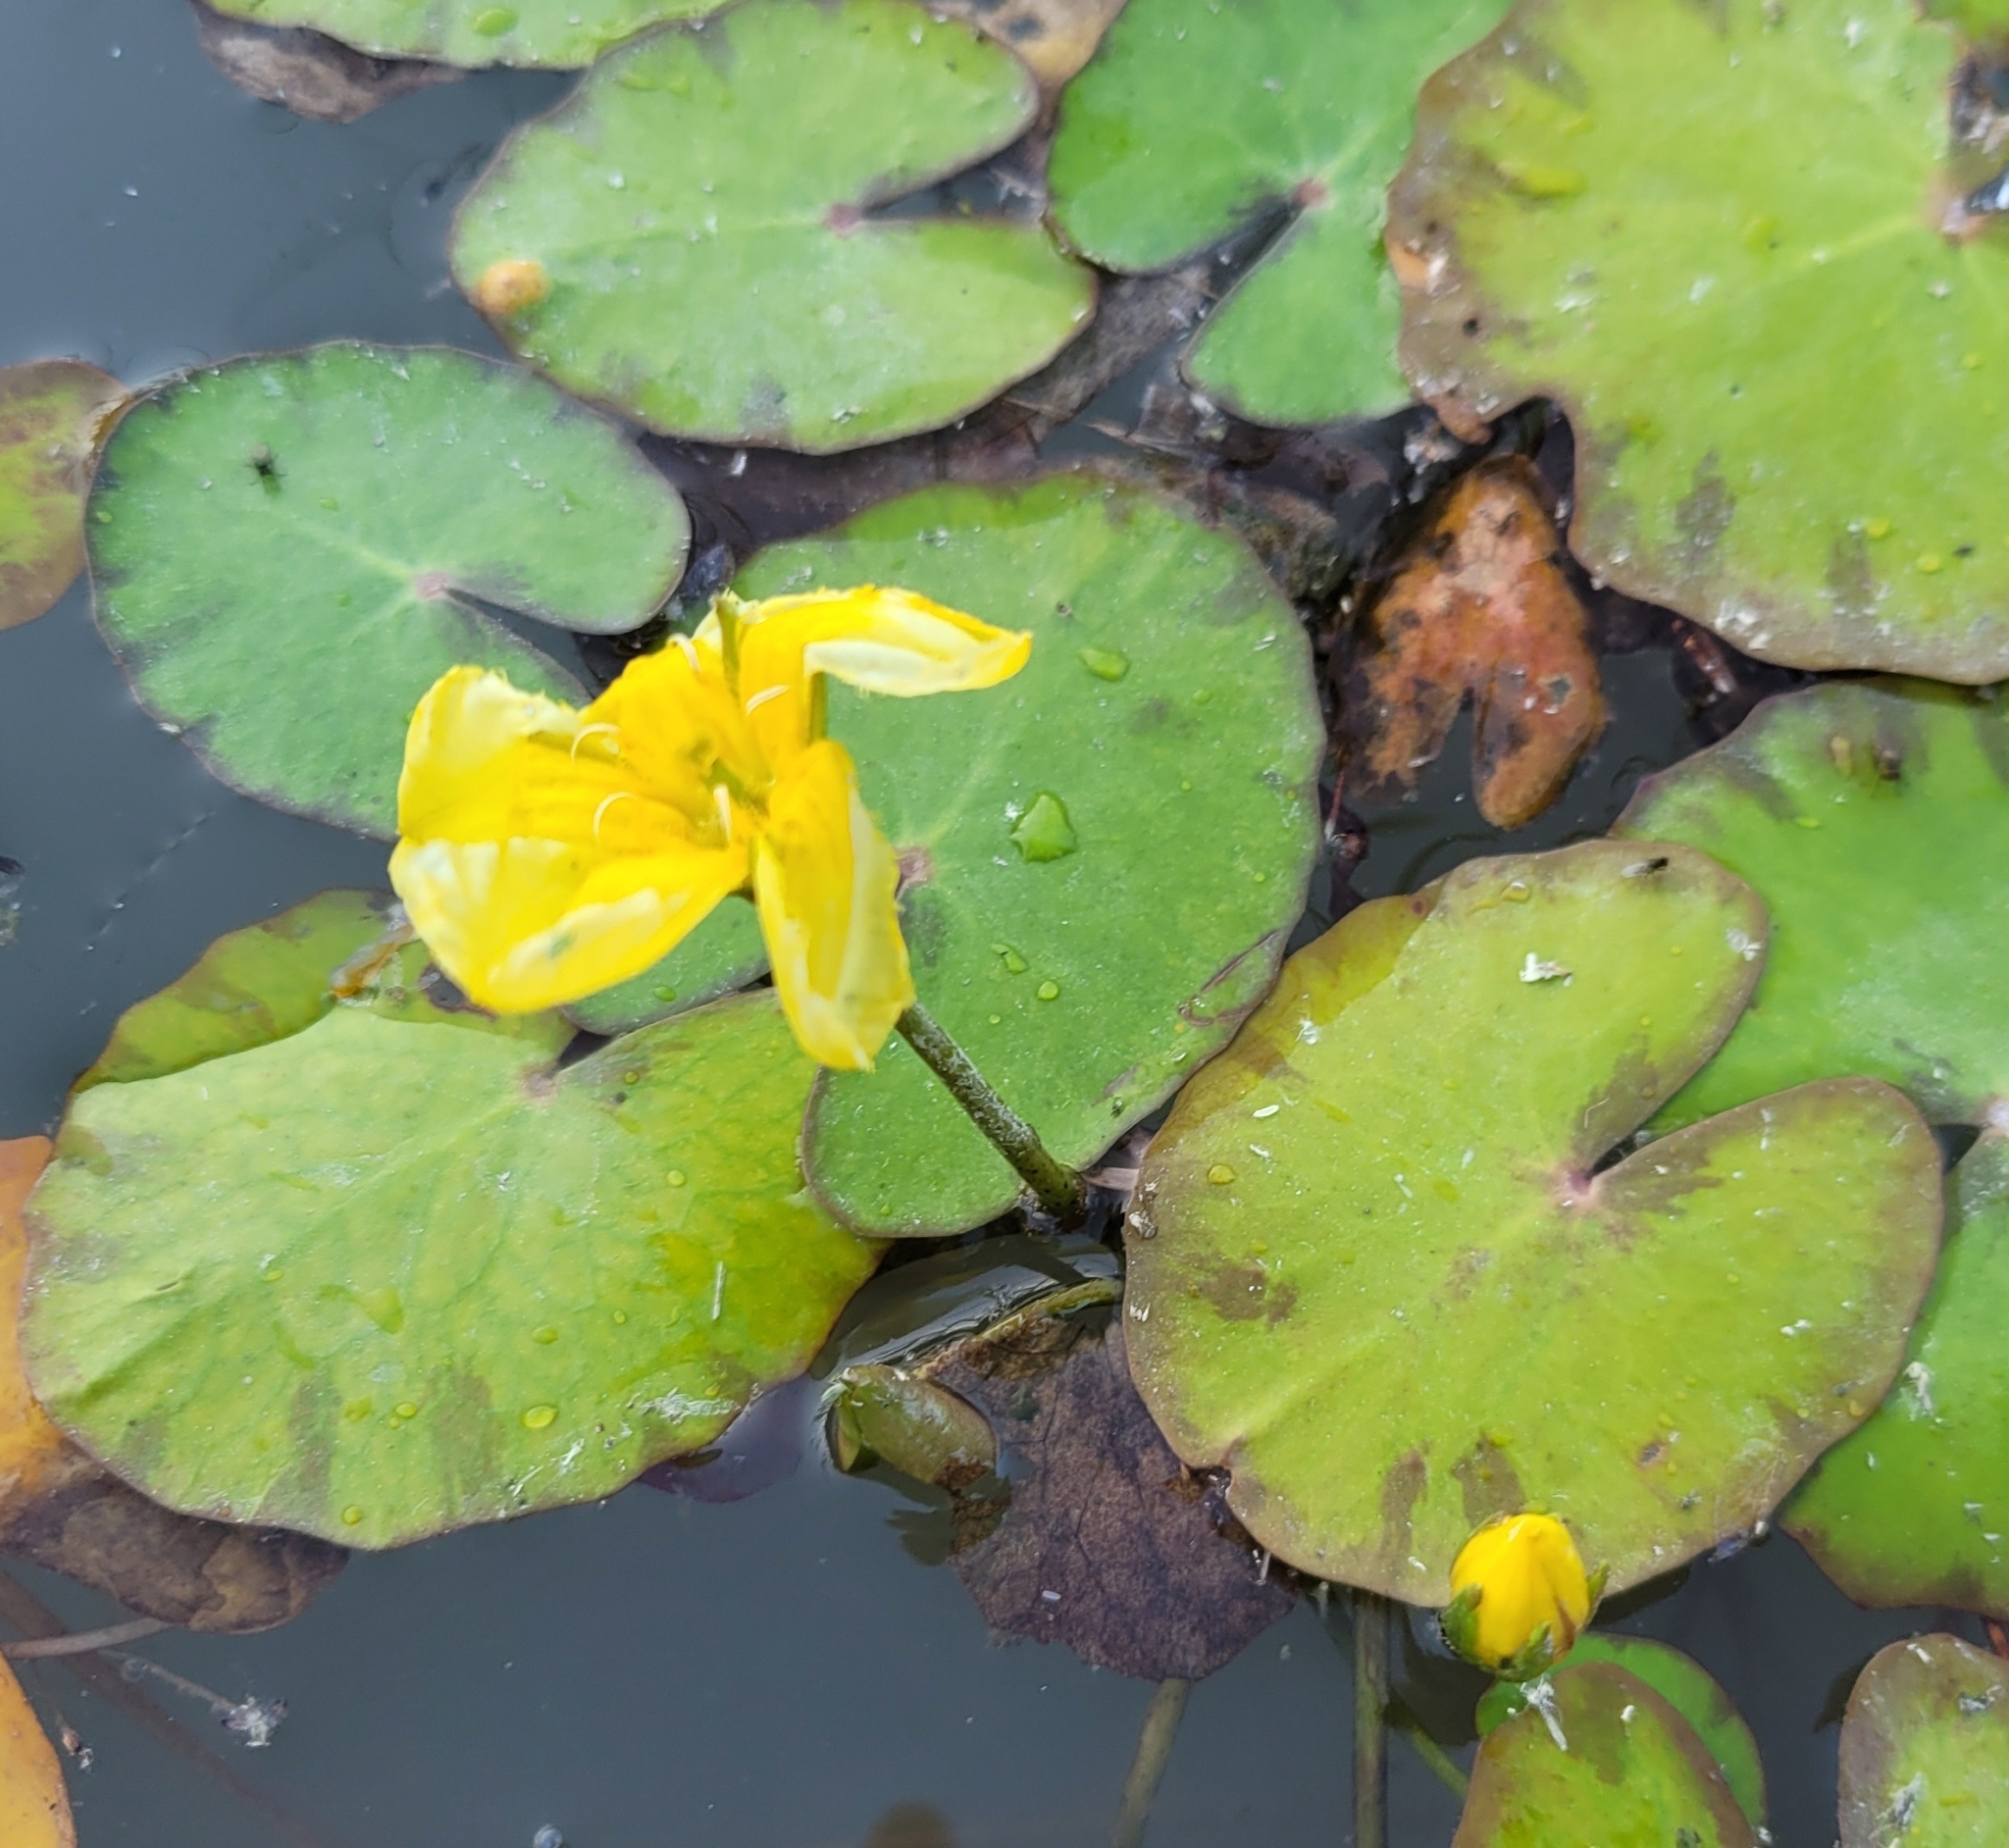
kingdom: Plantae
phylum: Tracheophyta
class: Magnoliopsida
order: Asterales
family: Menyanthaceae
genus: Nymphoides
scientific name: Nymphoides peltata
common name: Fringed water-lily
